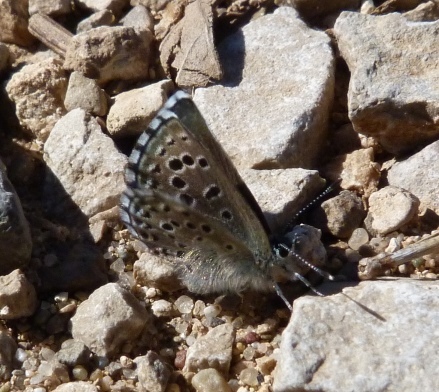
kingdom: Animalia
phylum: Arthropoda
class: Insecta
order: Lepidoptera
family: Lycaenidae
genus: Pseudophilotes
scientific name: Pseudophilotes baton
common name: Baton blue
